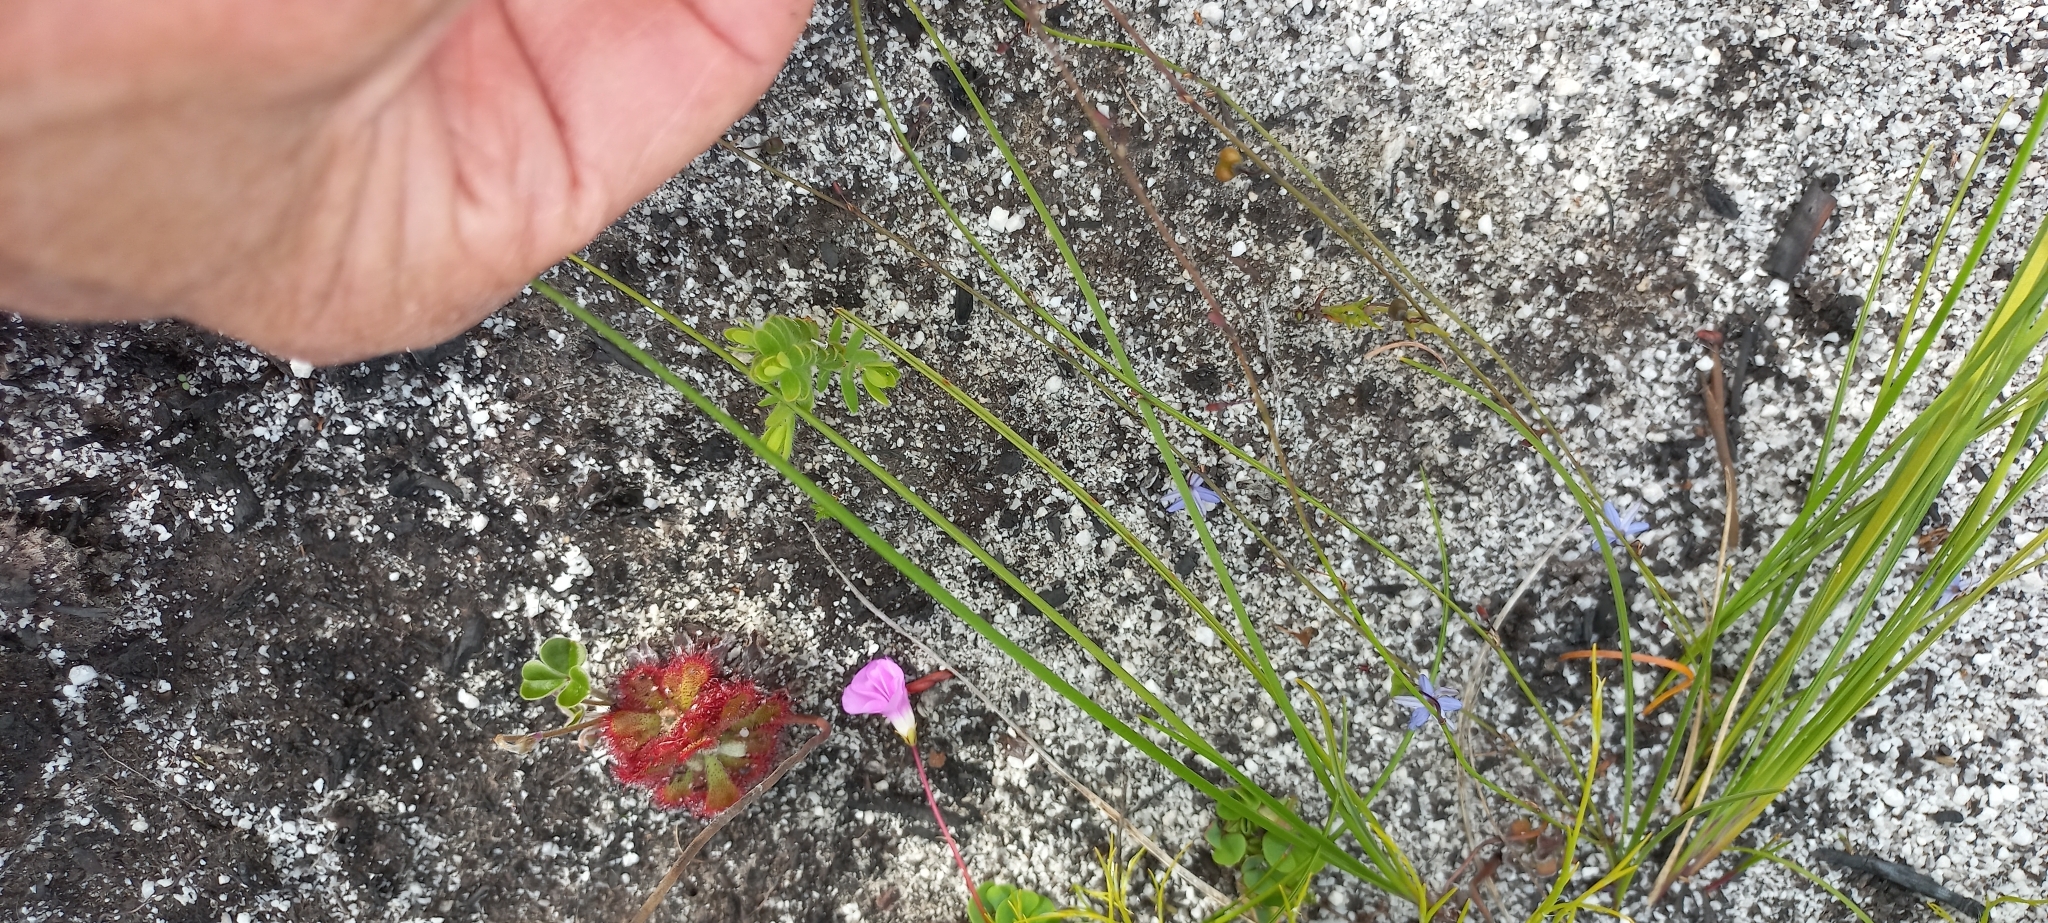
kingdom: Plantae
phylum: Tracheophyta
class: Magnoliopsida
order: Caryophyllales
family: Droseraceae
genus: Drosera
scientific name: Drosera aliciae
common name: Alice sundew
